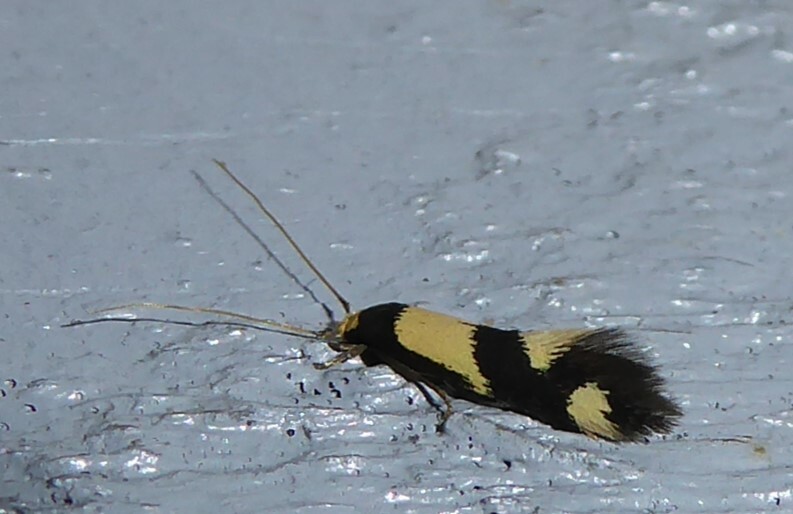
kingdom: Animalia
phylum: Arthropoda
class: Insecta
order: Lepidoptera
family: Tineidae
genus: Opogona
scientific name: Opogona comptella
